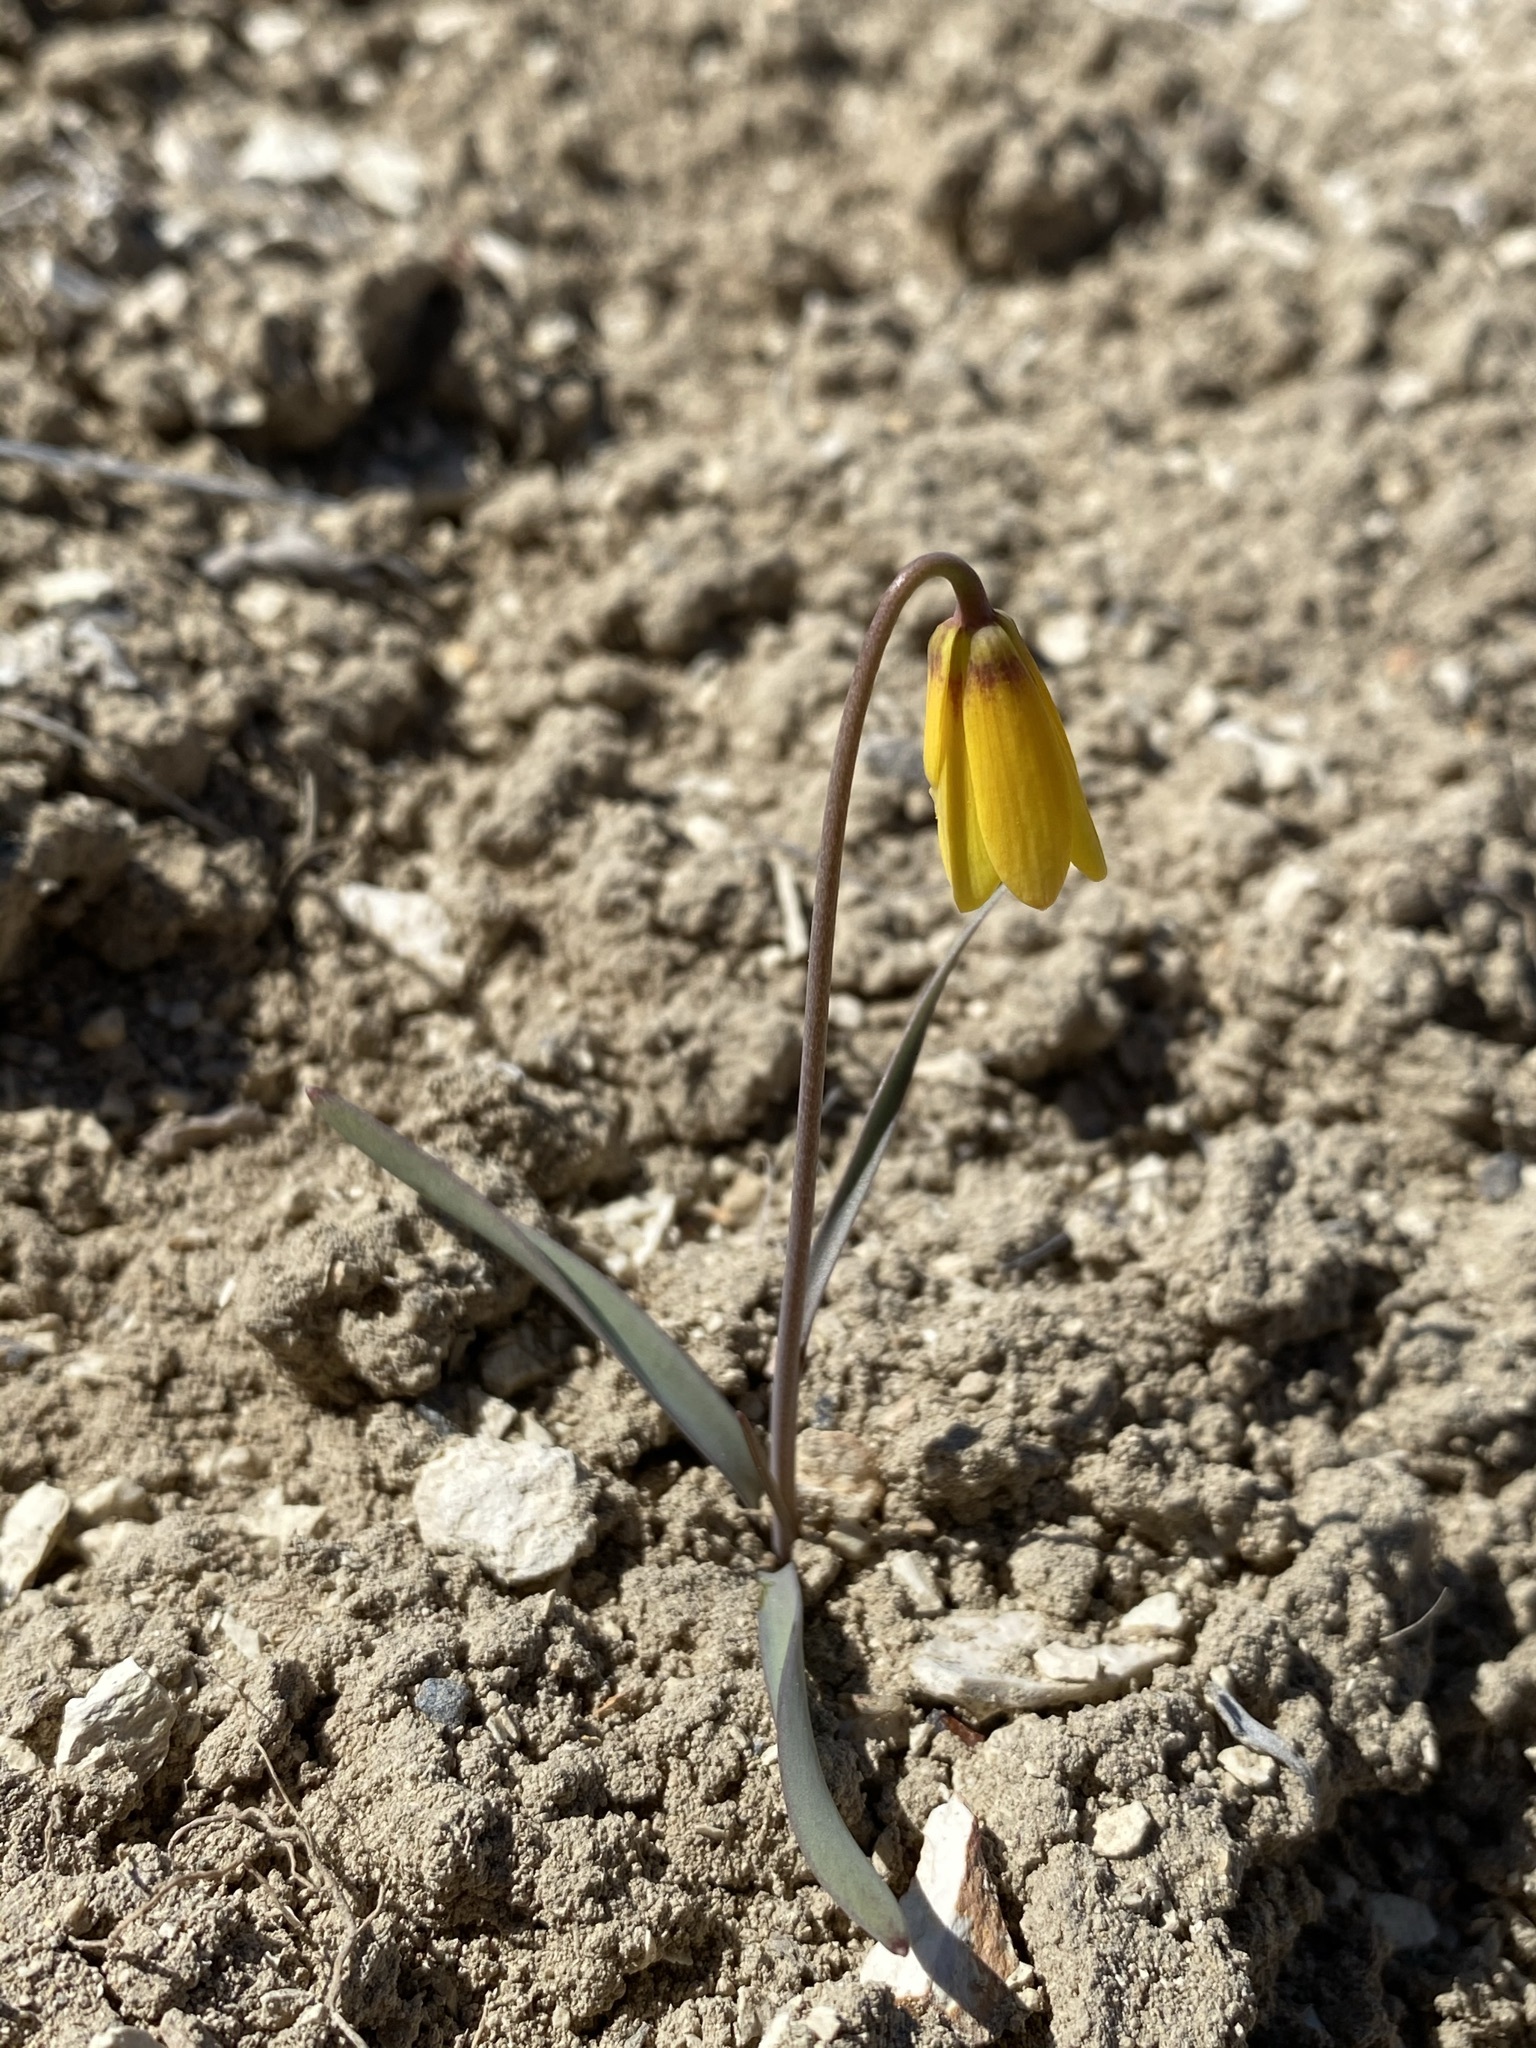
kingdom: Plantae
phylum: Tracheophyta
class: Liliopsida
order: Liliales
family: Liliaceae
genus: Fritillaria
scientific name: Fritillaria pudica
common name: Yellow fritillary
